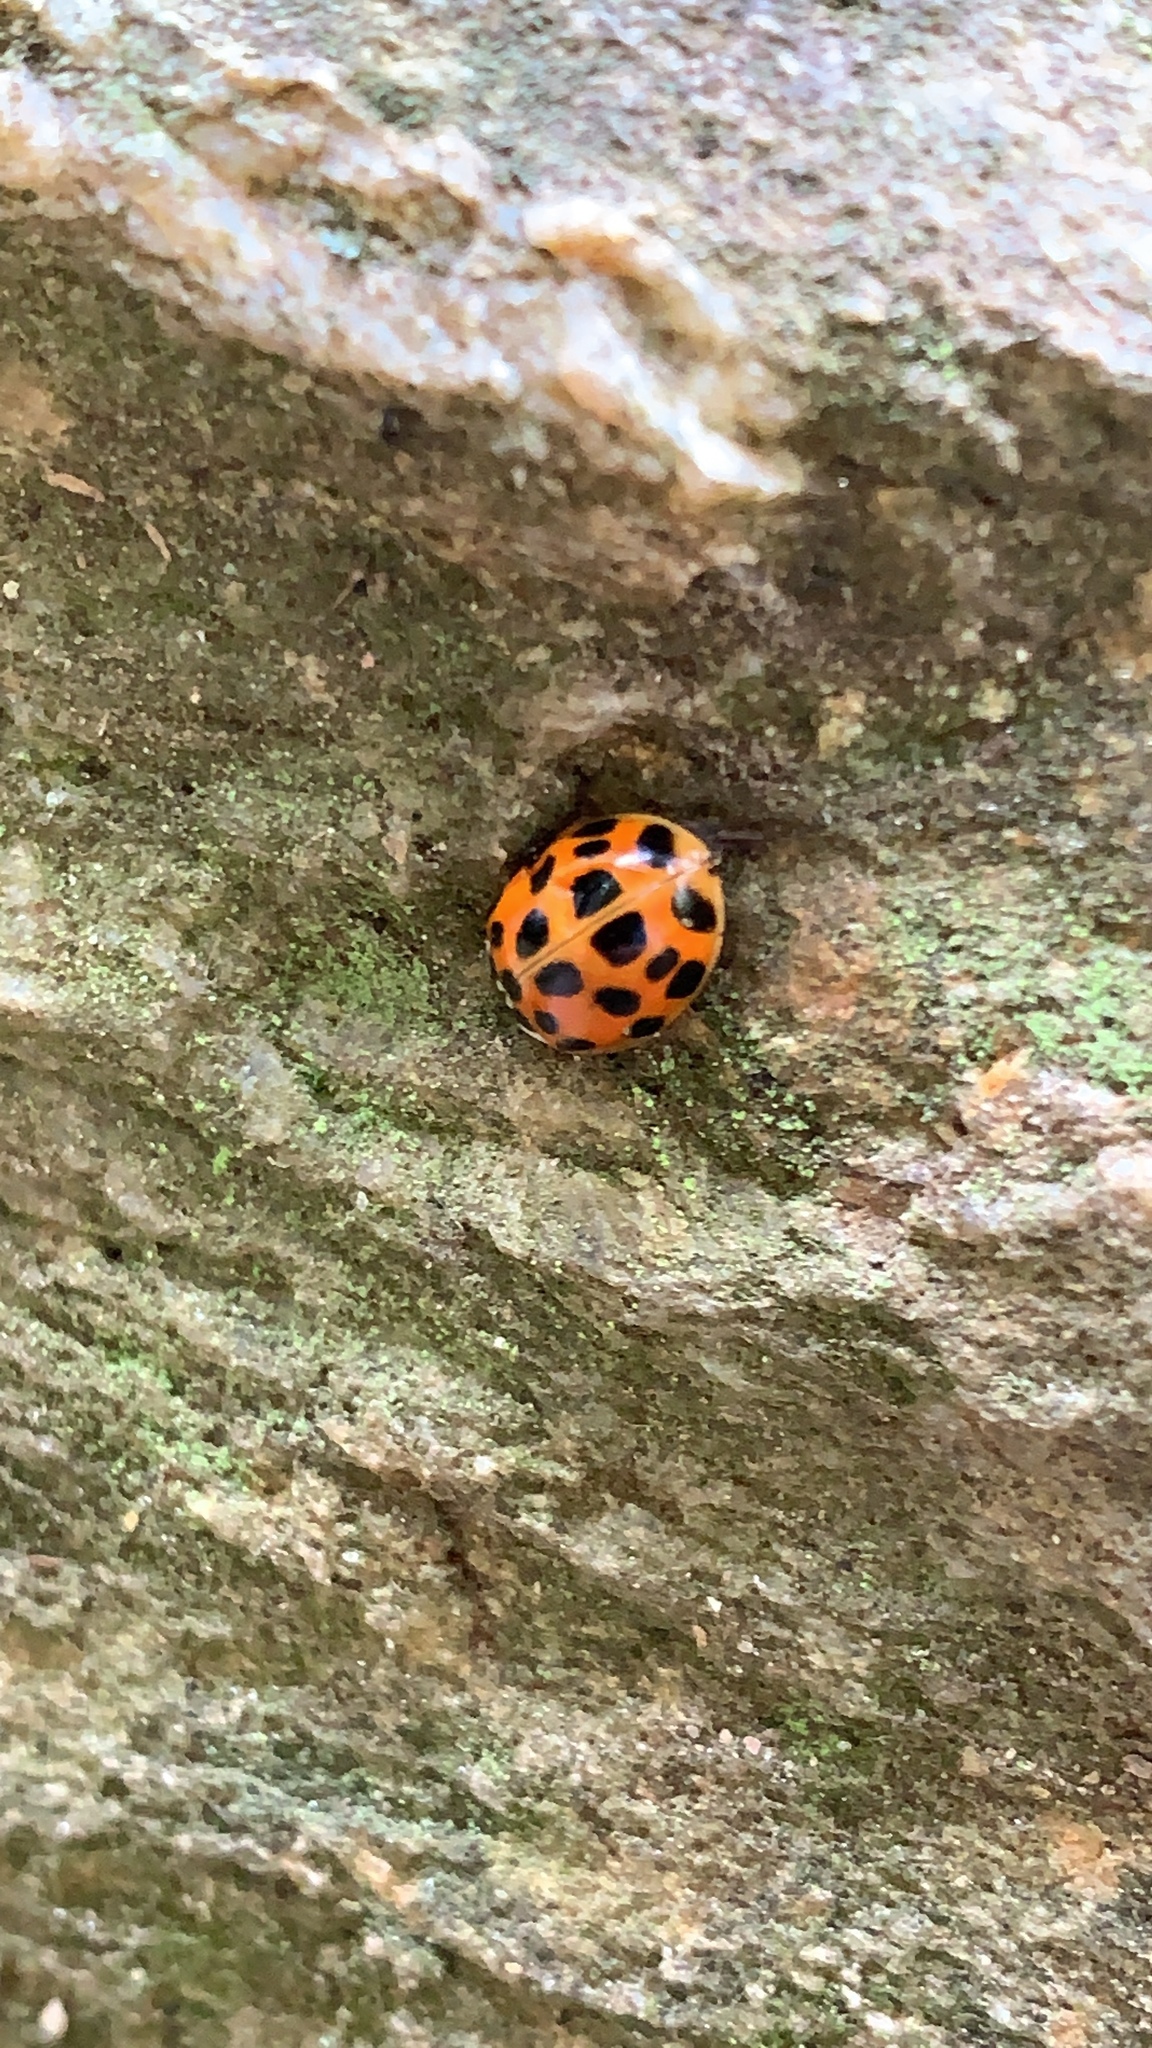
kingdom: Animalia
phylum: Arthropoda
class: Insecta
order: Coleoptera
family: Coccinellidae
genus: Harmonia
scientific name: Harmonia axyridis
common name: Harlequin ladybird
